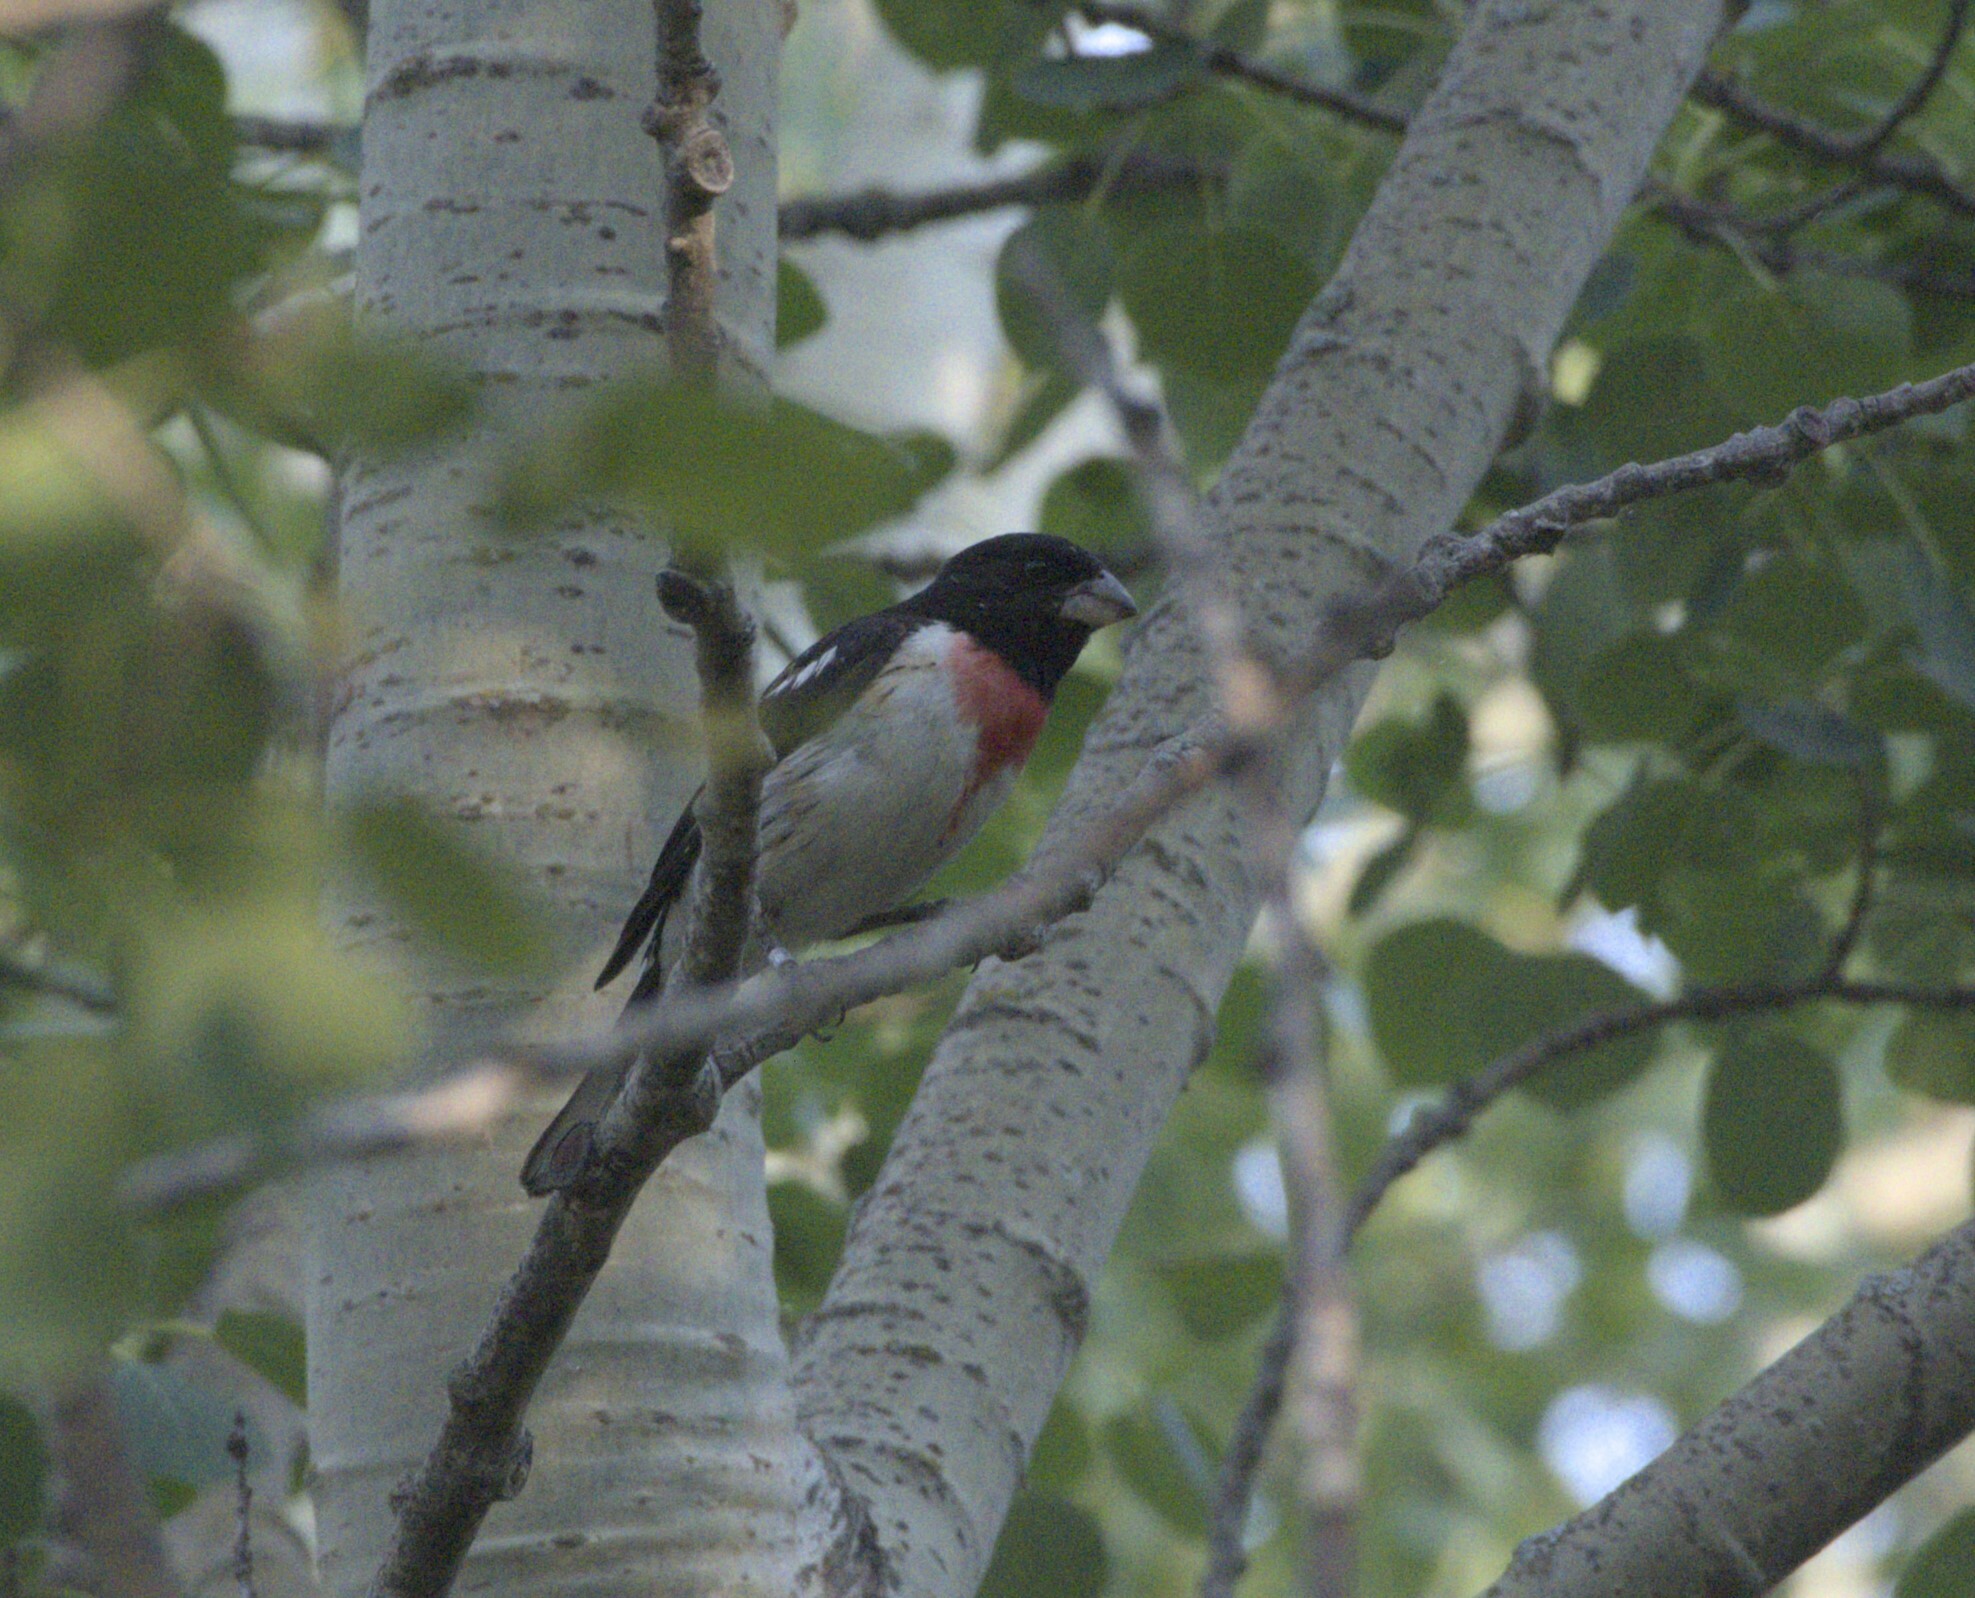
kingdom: Animalia
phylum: Chordata
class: Aves
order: Passeriformes
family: Cardinalidae
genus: Pheucticus
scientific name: Pheucticus ludovicianus
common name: Rose-breasted grosbeak
